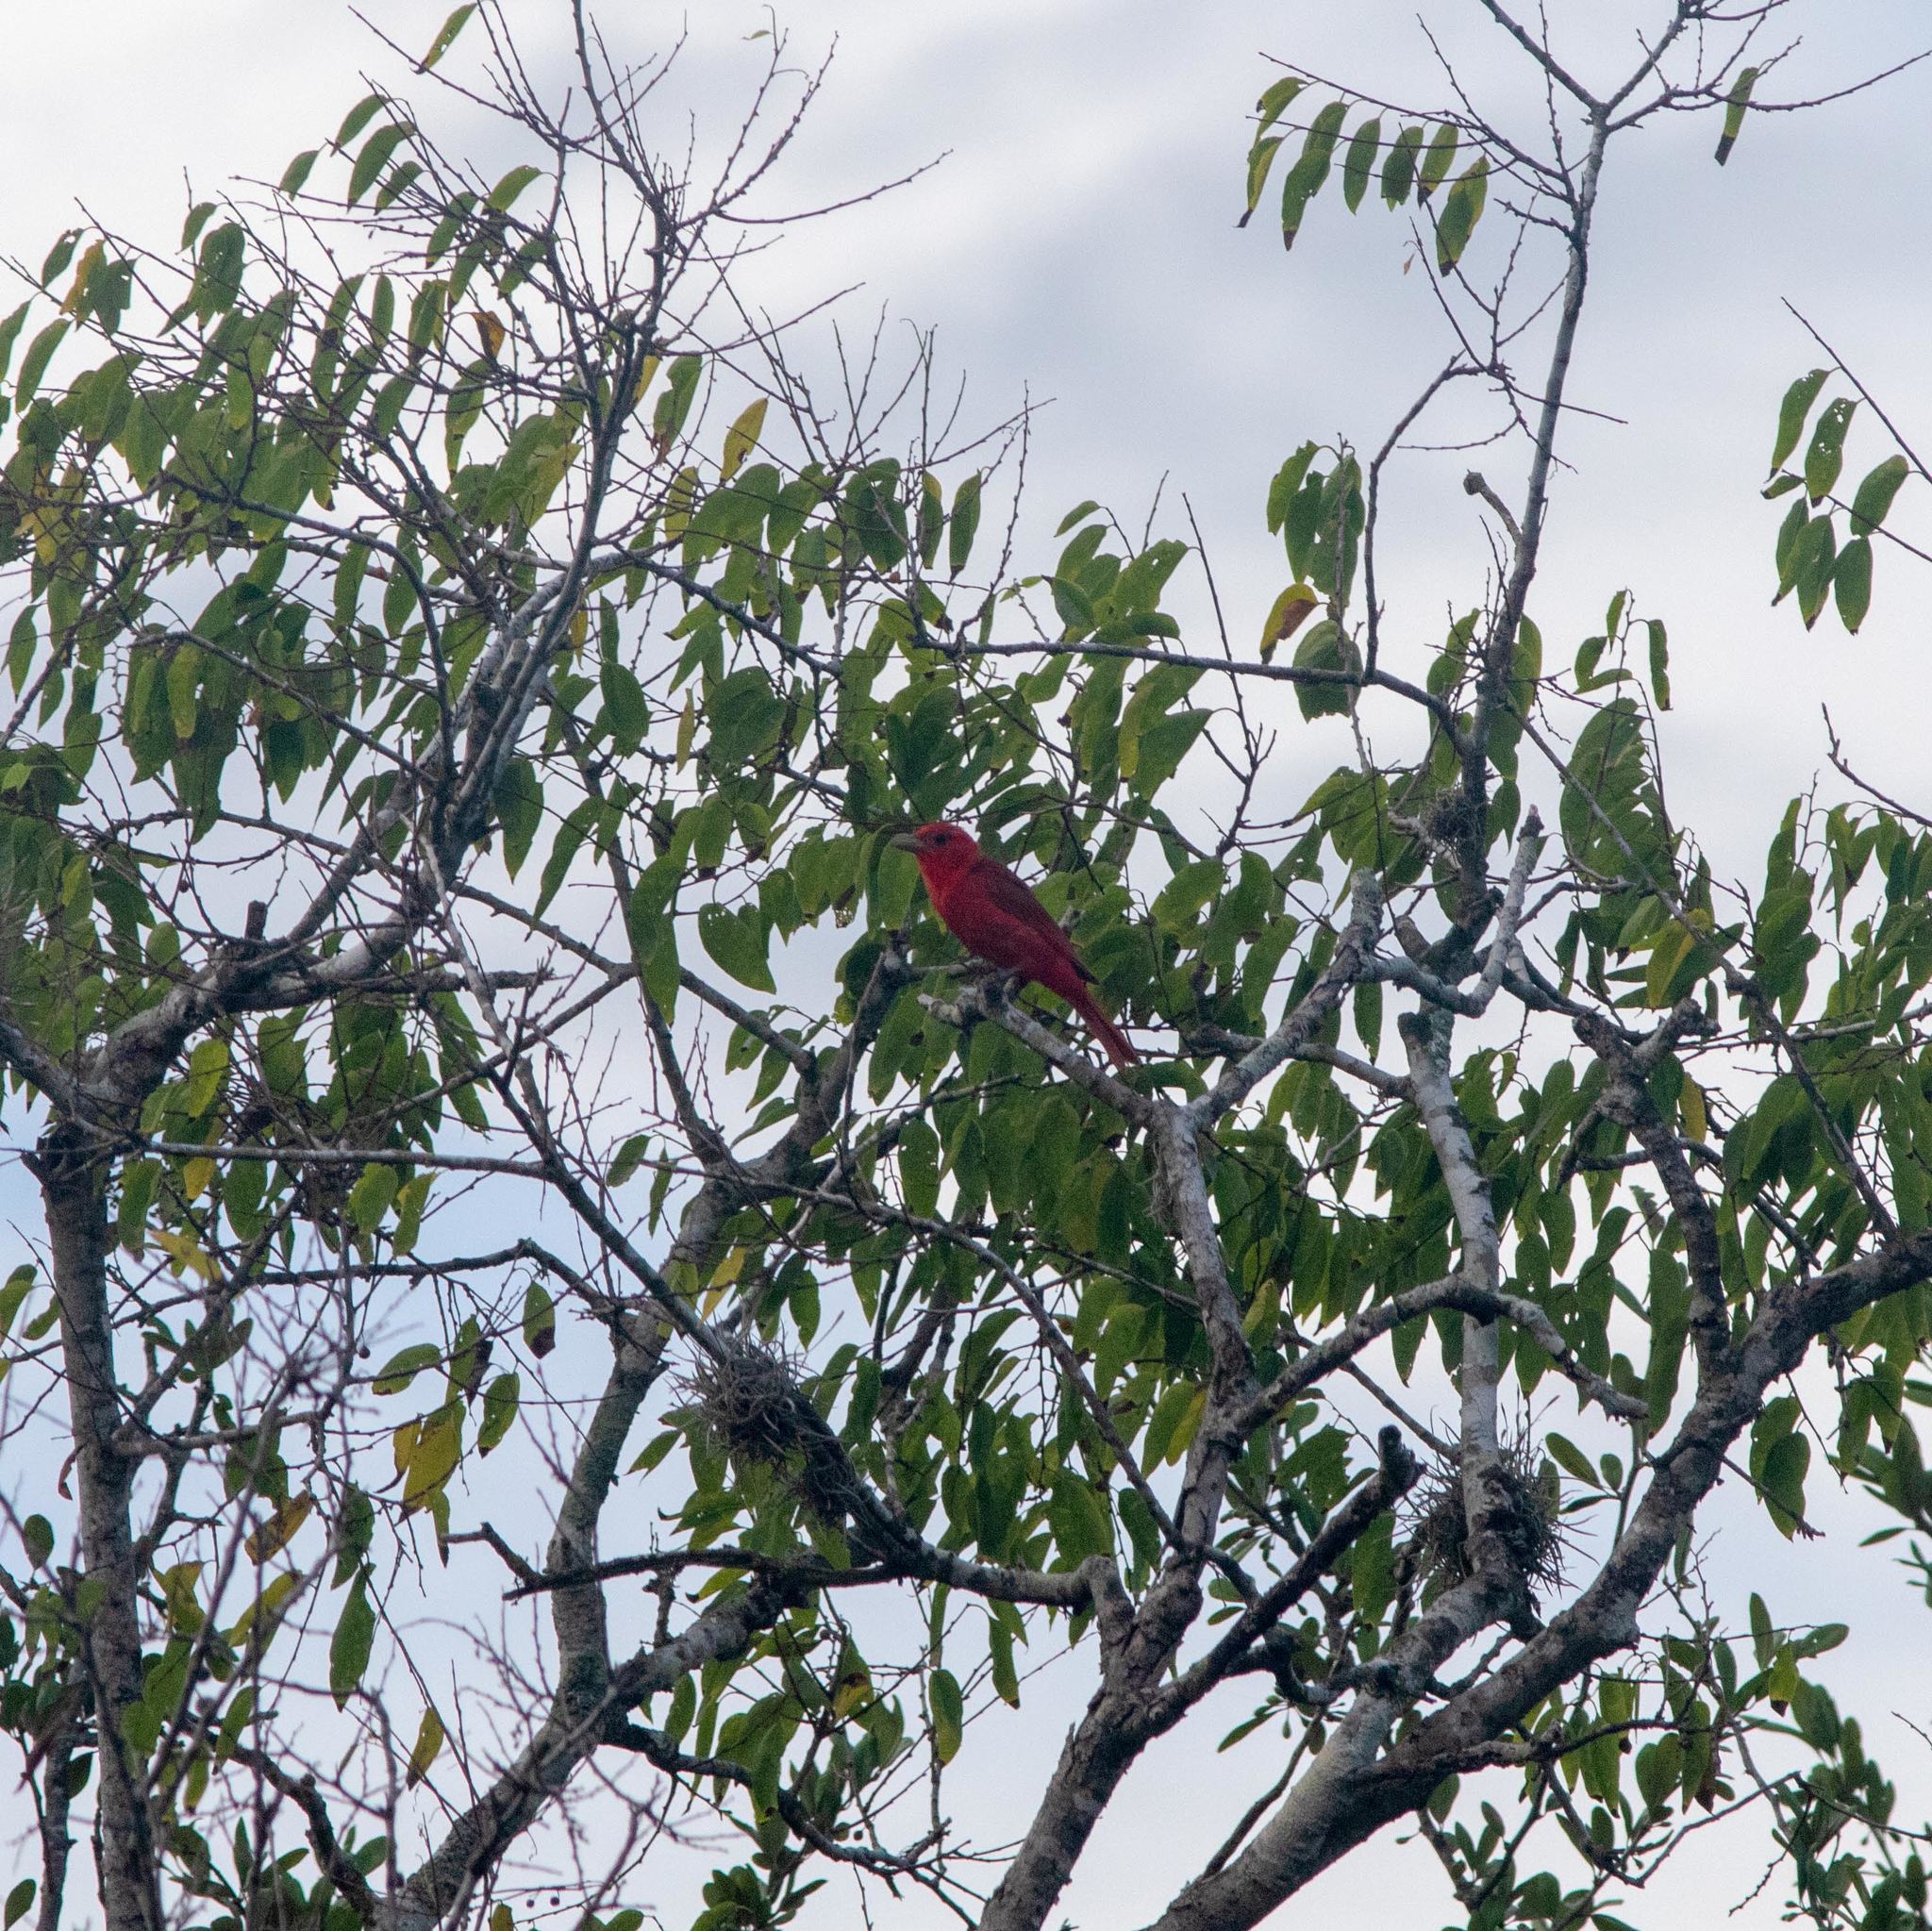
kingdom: Animalia
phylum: Chordata
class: Aves
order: Passeriformes
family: Cardinalidae
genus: Piranga
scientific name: Piranga rubra
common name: Summer tanager
